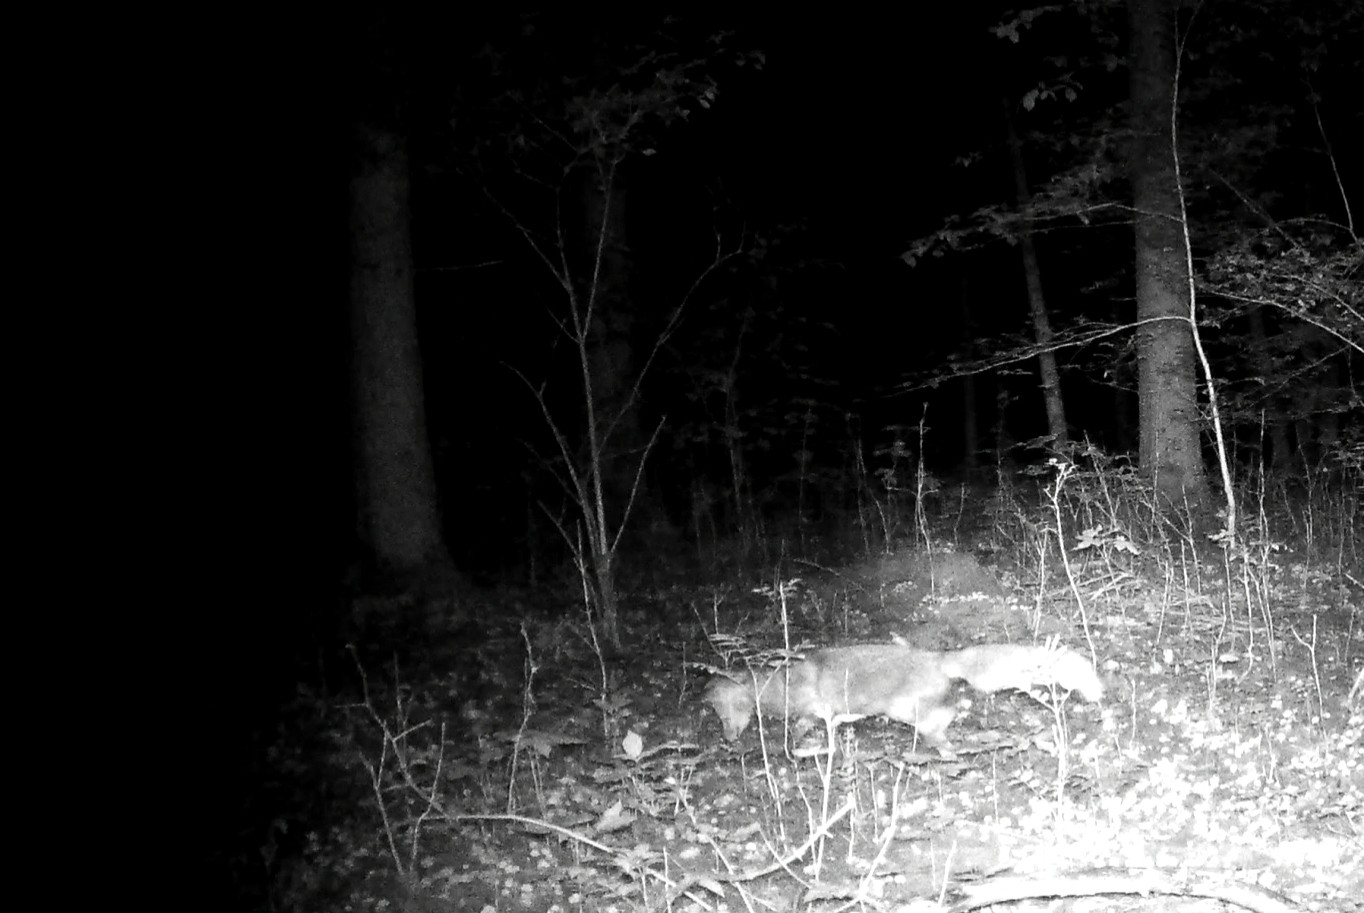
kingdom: Animalia
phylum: Chordata
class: Mammalia
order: Carnivora
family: Canidae
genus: Vulpes
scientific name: Vulpes vulpes
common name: Red fox
